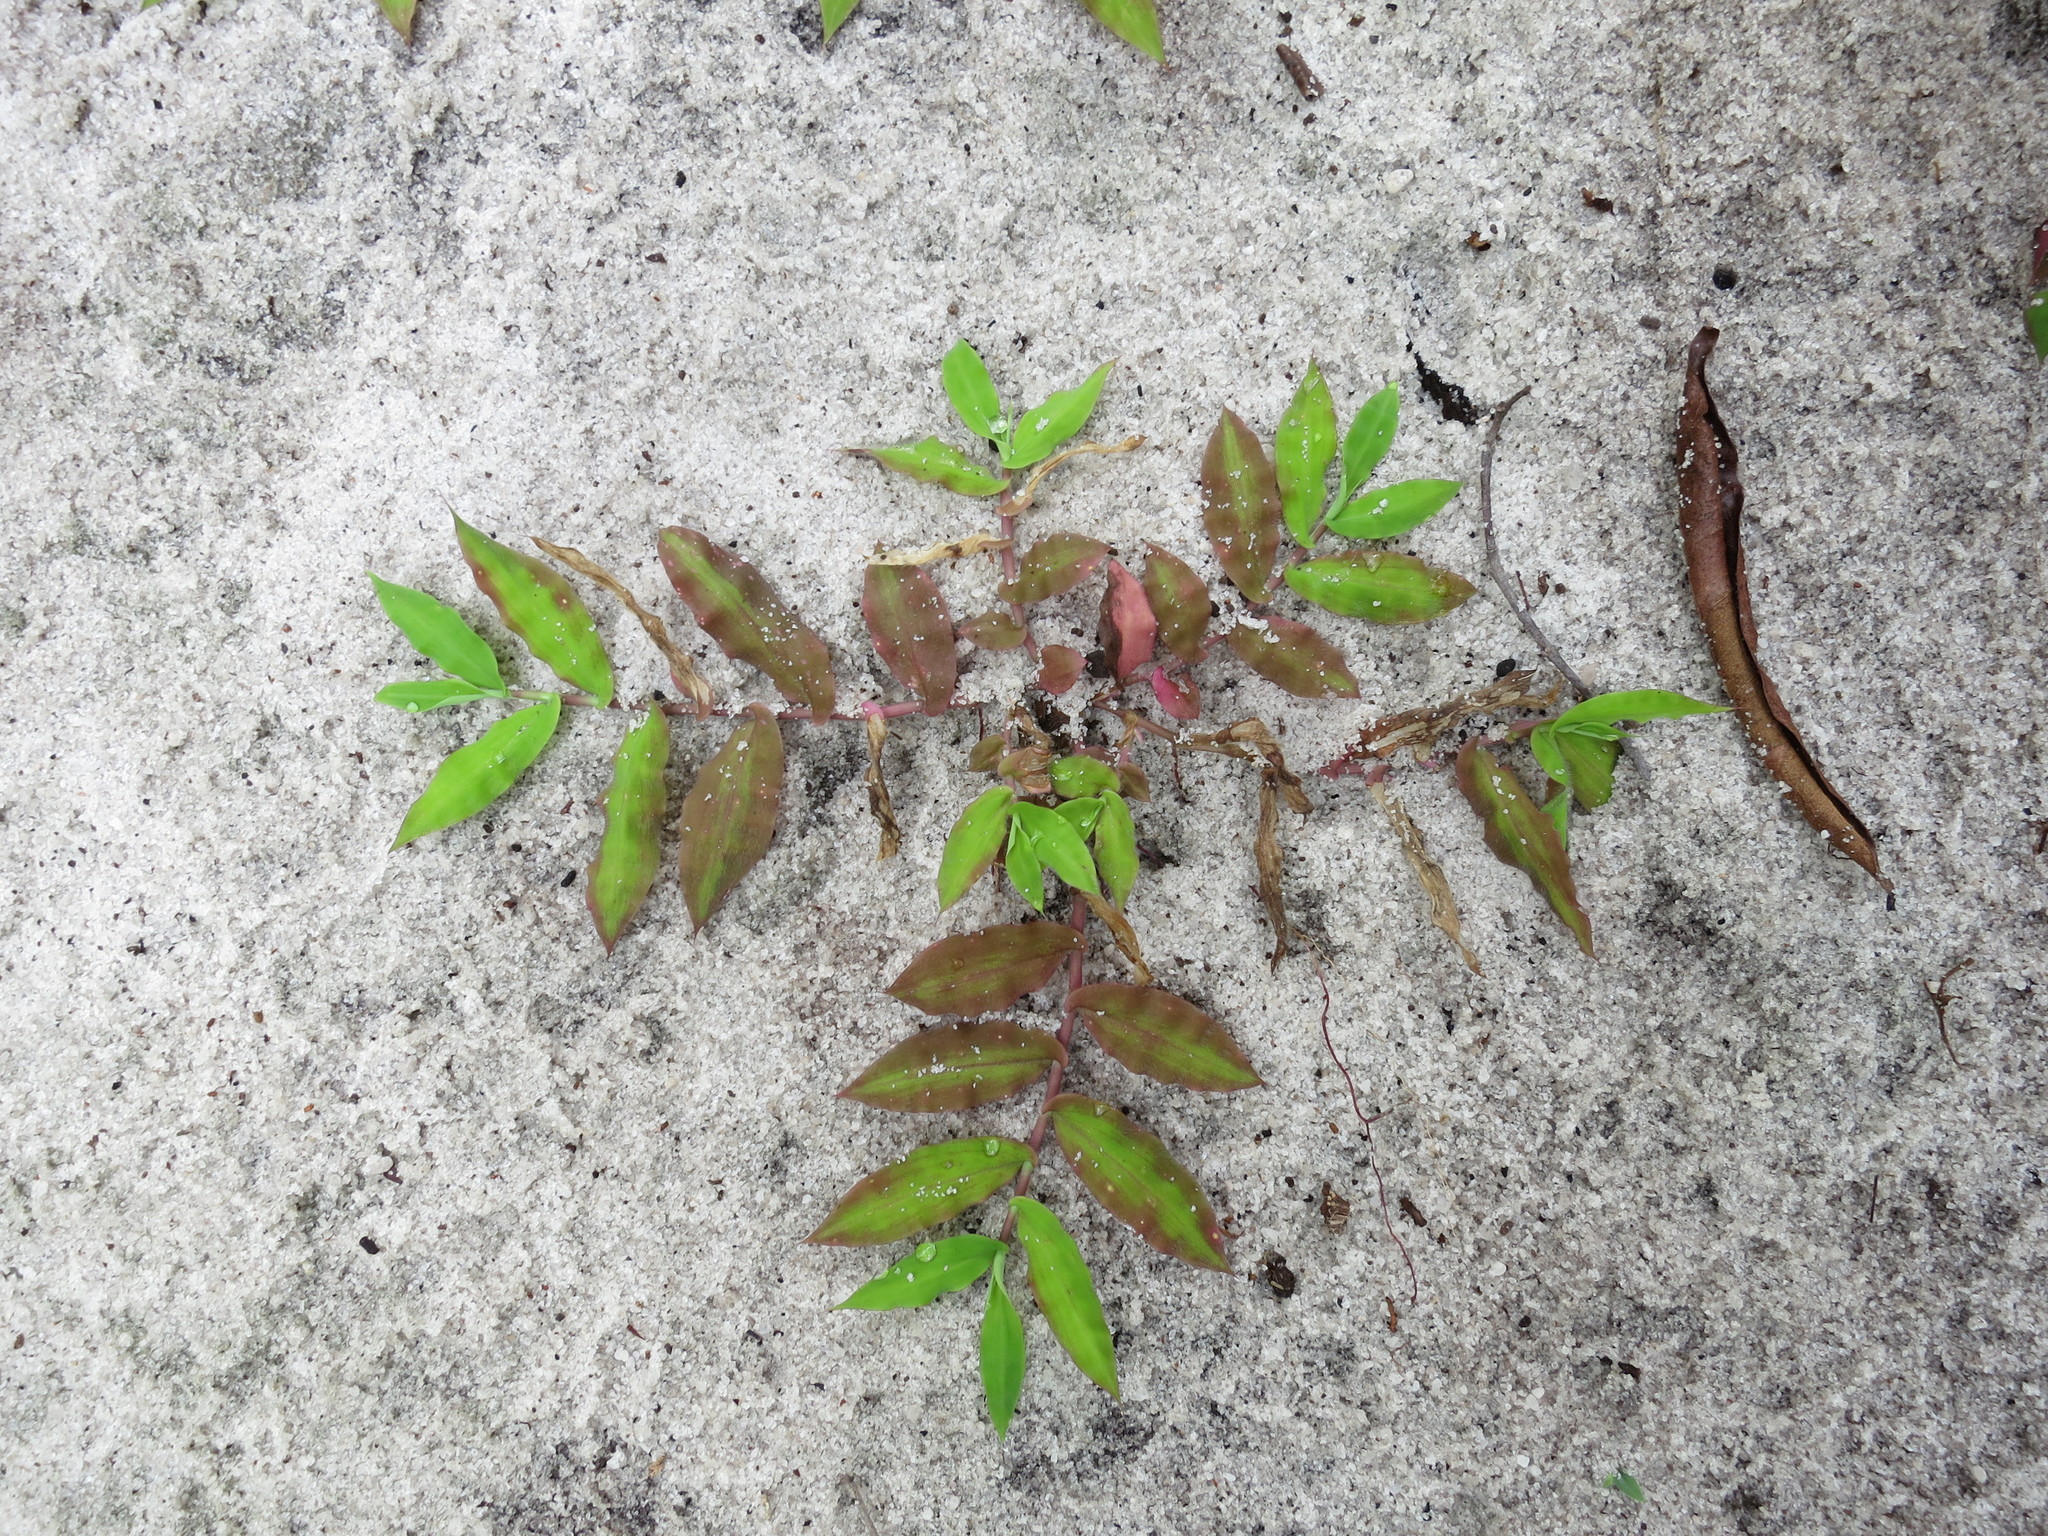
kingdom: Plantae
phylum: Tracheophyta
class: Liliopsida
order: Poales
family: Poaceae
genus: Urochloa
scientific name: Urochloa Brachiaria bemarivensis
